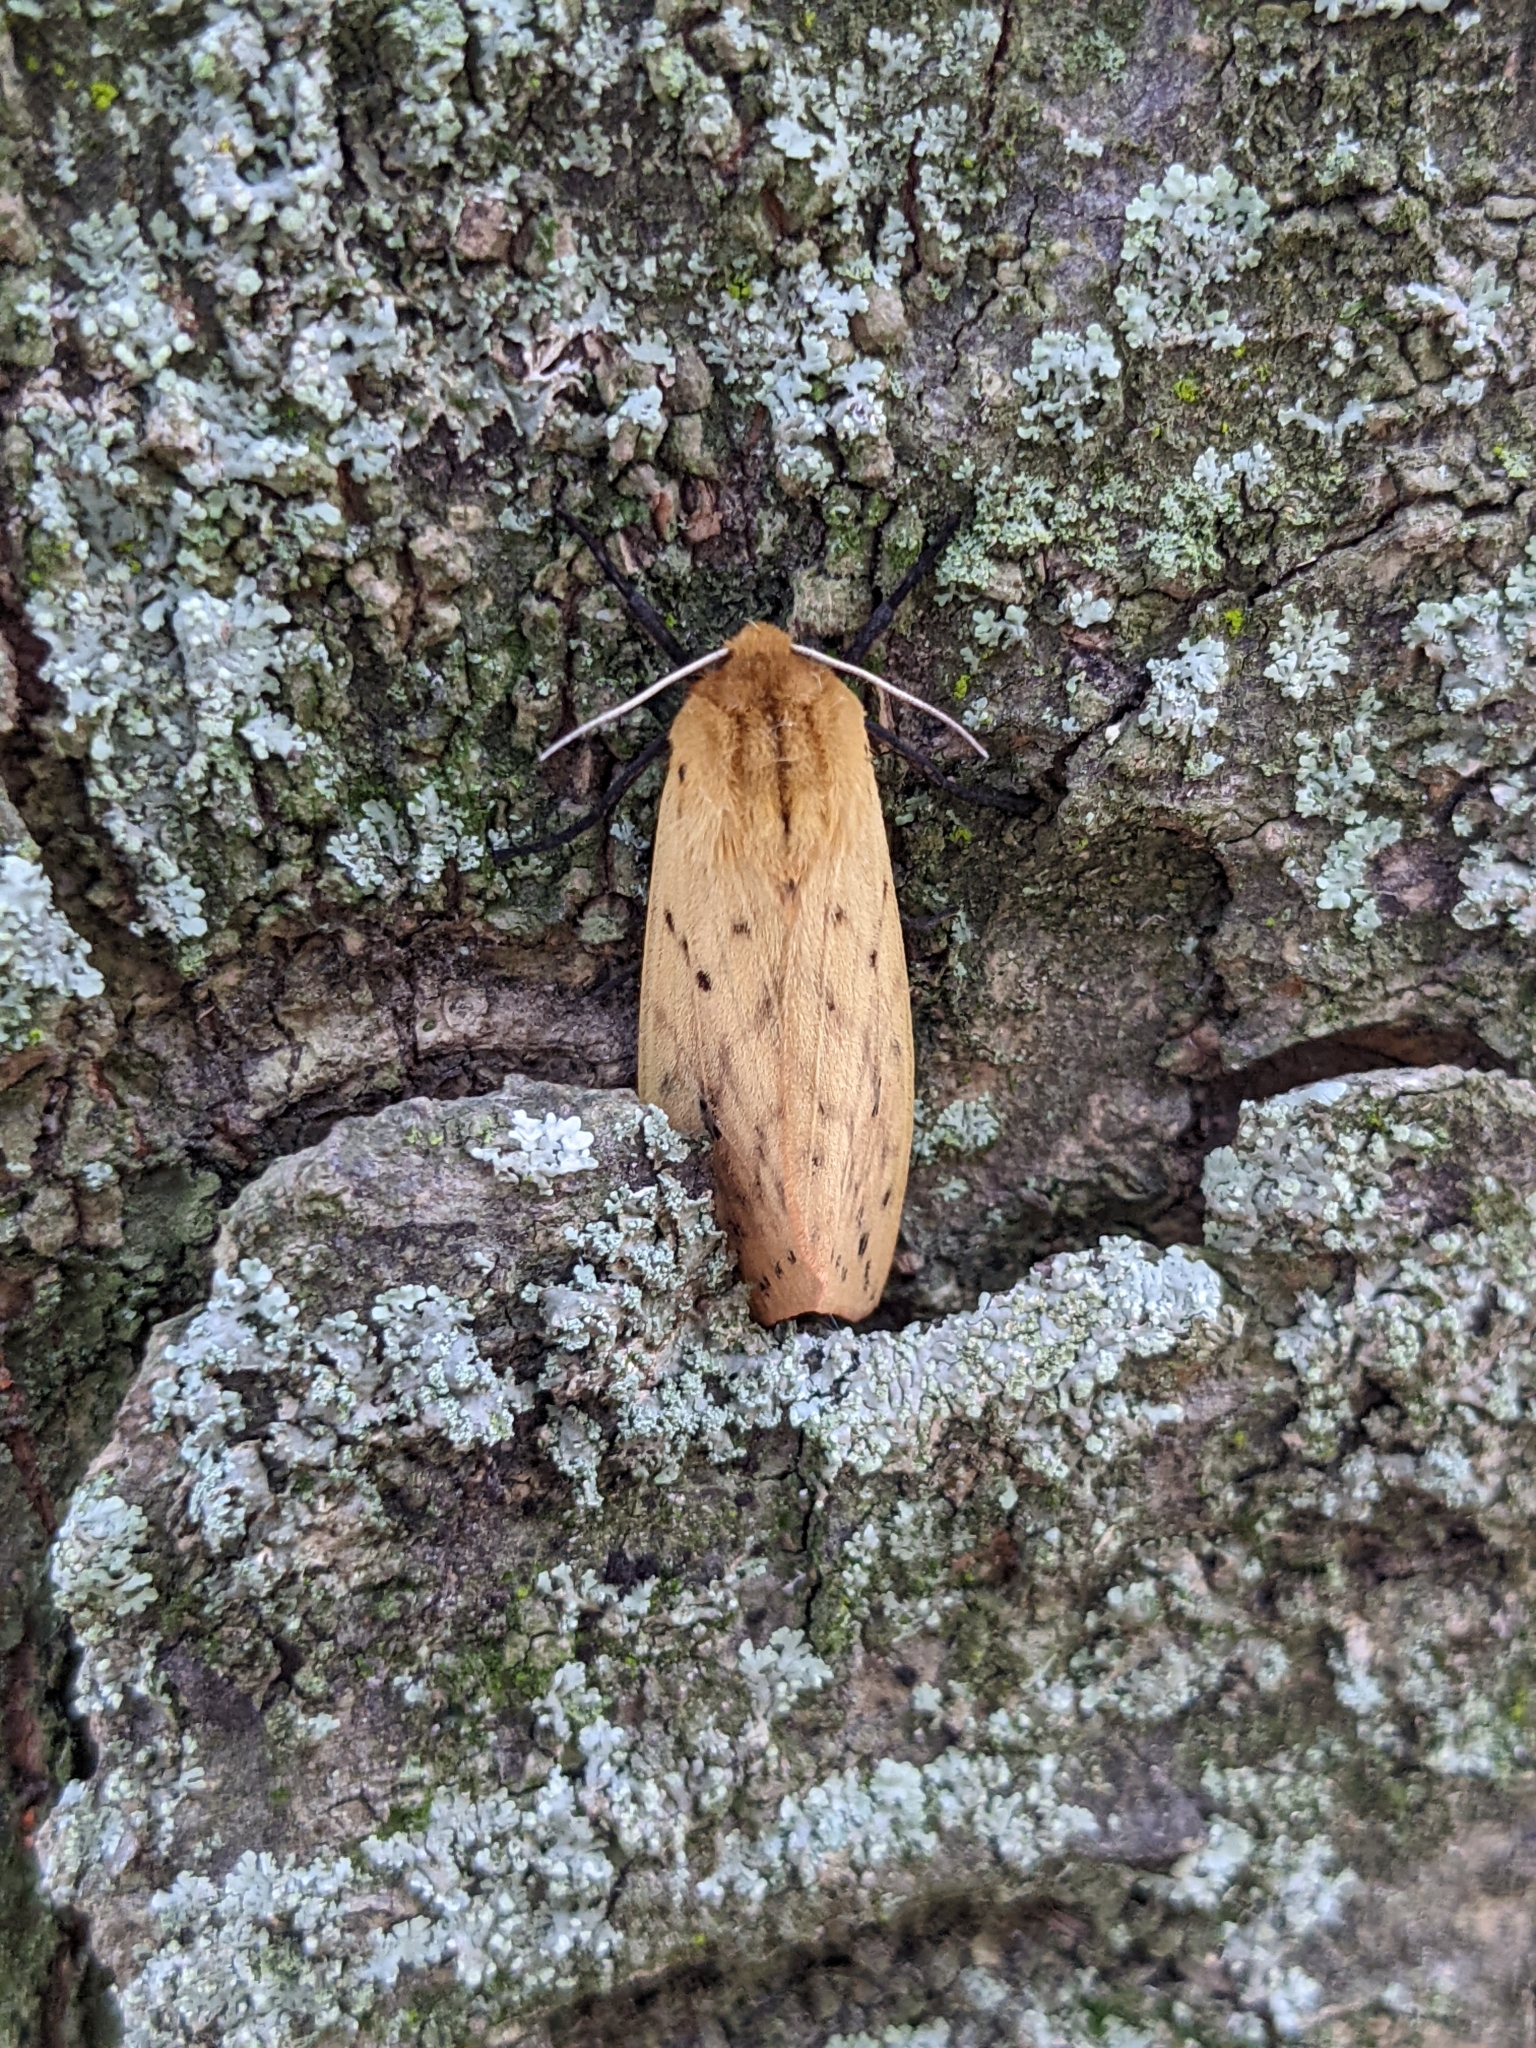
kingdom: Animalia
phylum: Arthropoda
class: Insecta
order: Lepidoptera
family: Erebidae
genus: Pyrrharctia
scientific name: Pyrrharctia isabella
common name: Isabella tiger moth
